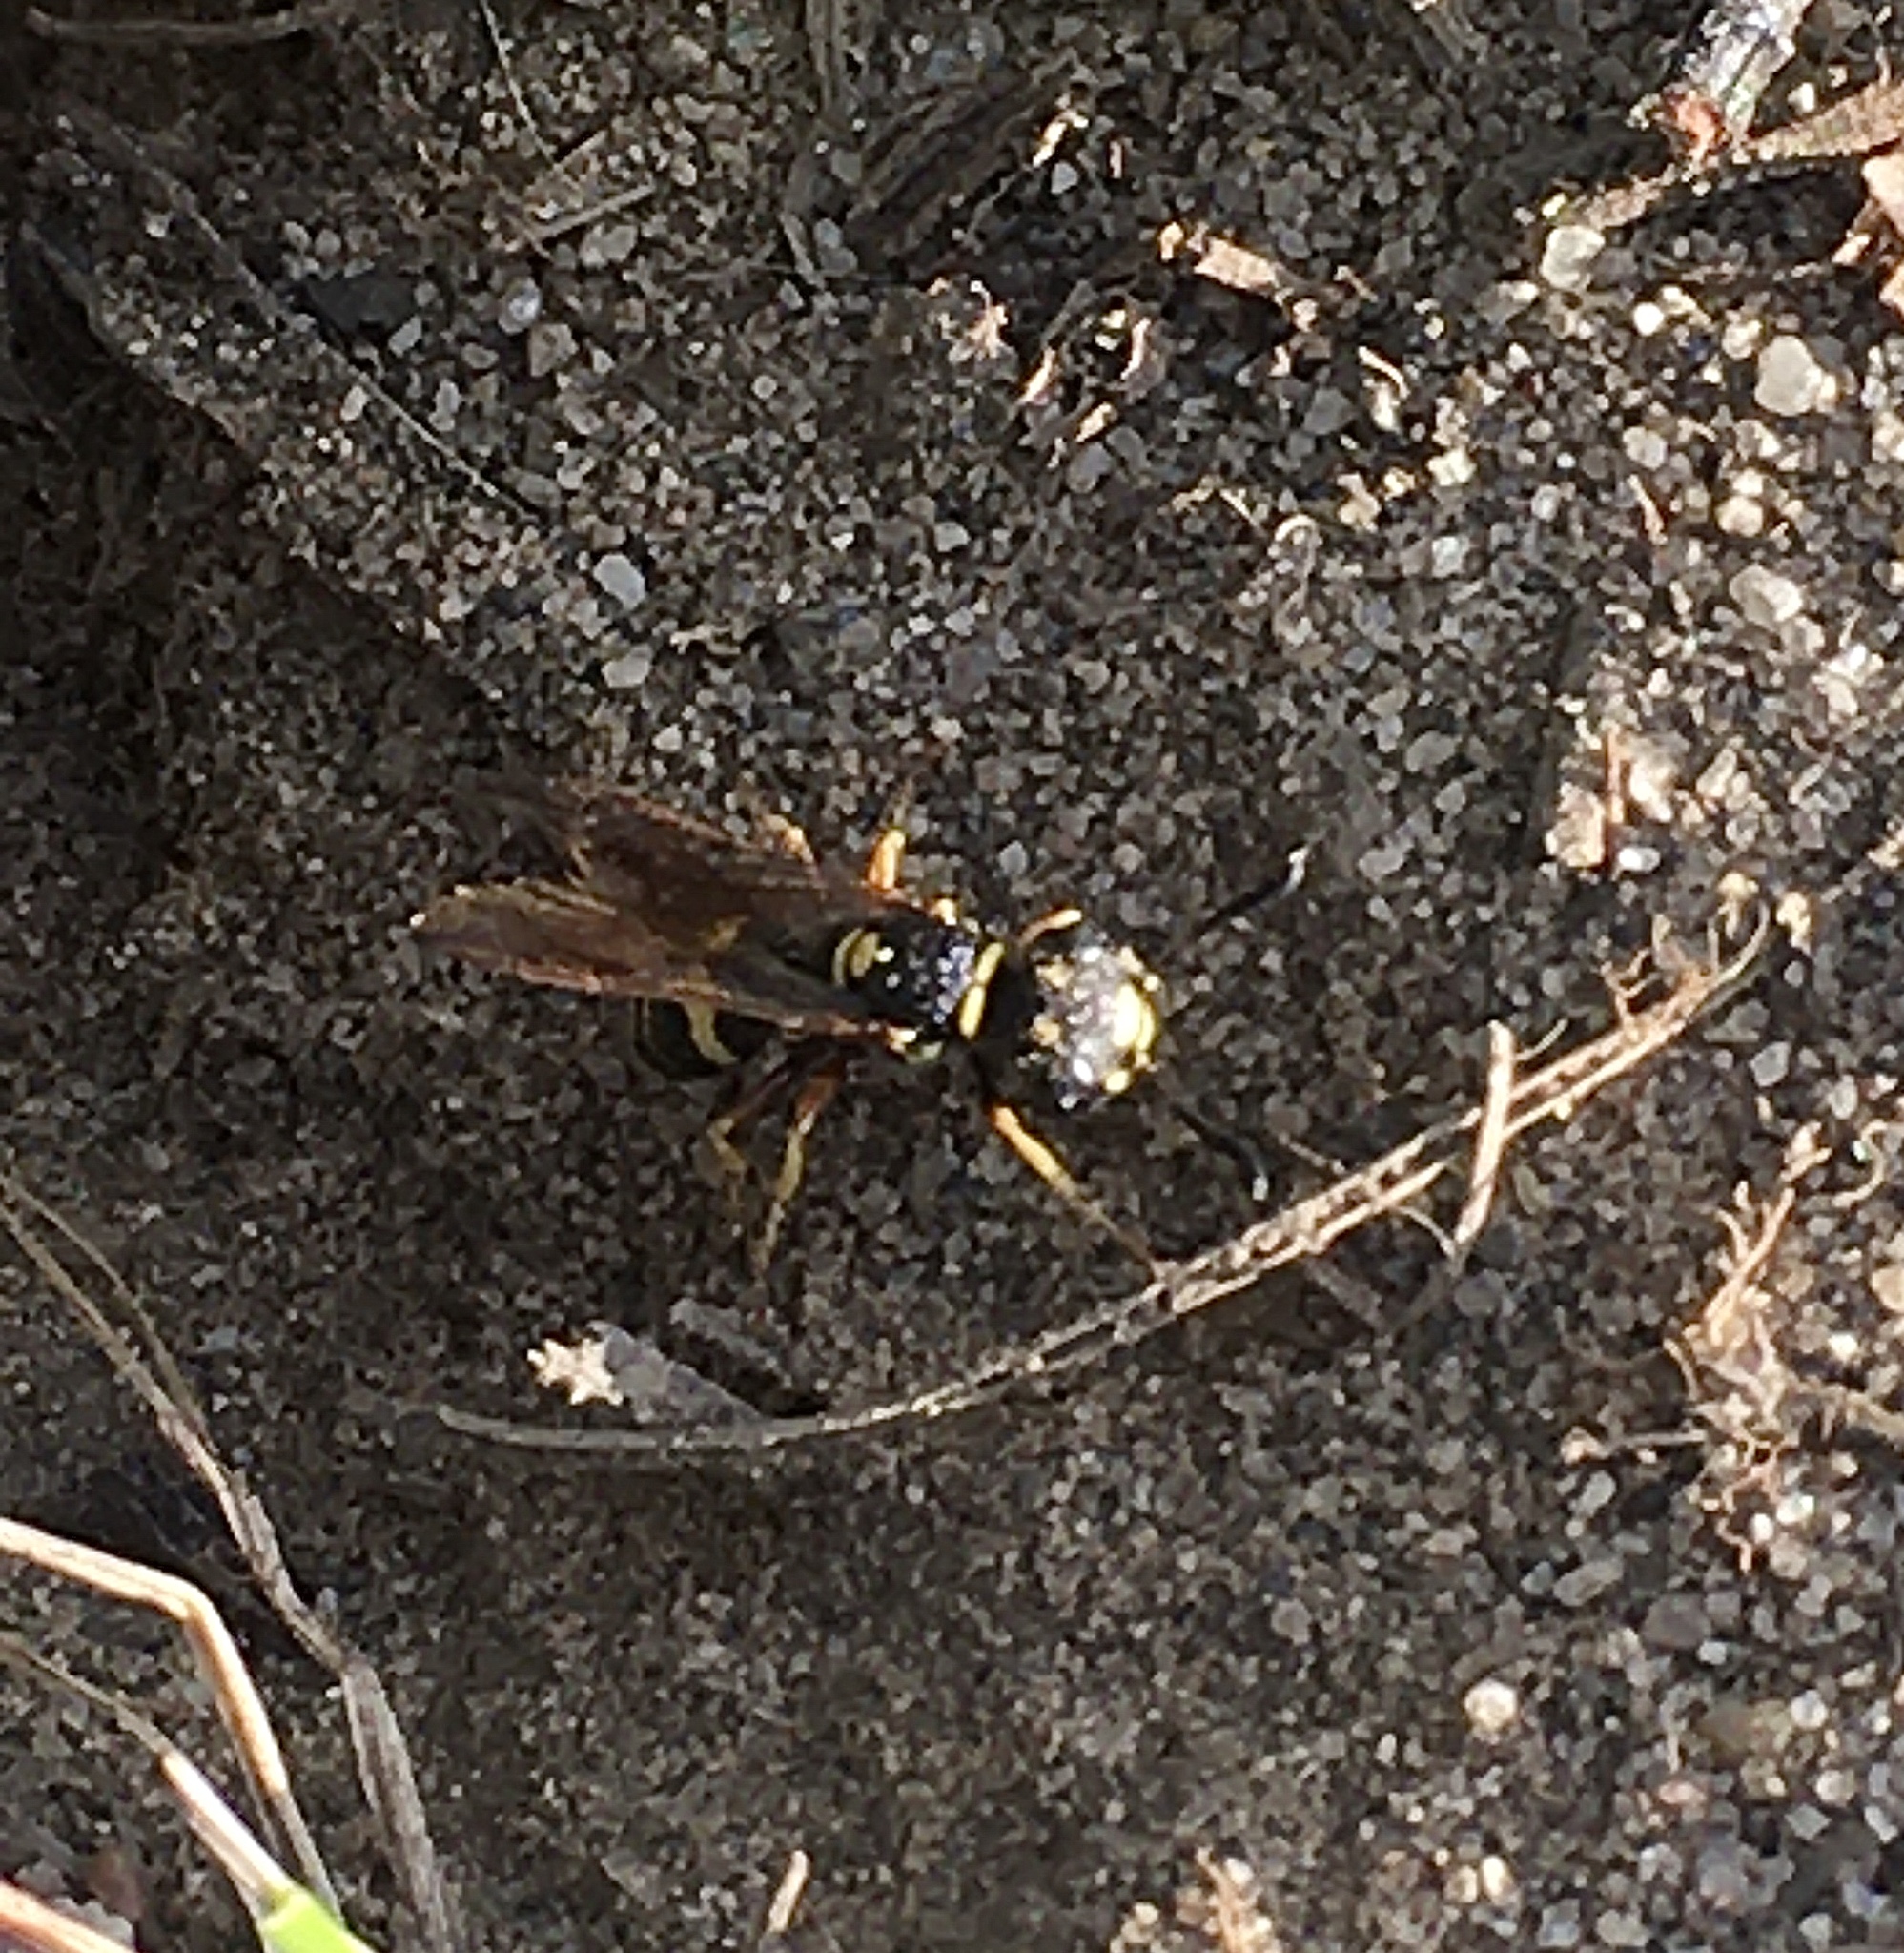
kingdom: Animalia
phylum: Arthropoda
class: Insecta
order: Hymenoptera
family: Crabronidae
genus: Philanthus
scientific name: Philanthus gibbosus
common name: Humped beewolf
